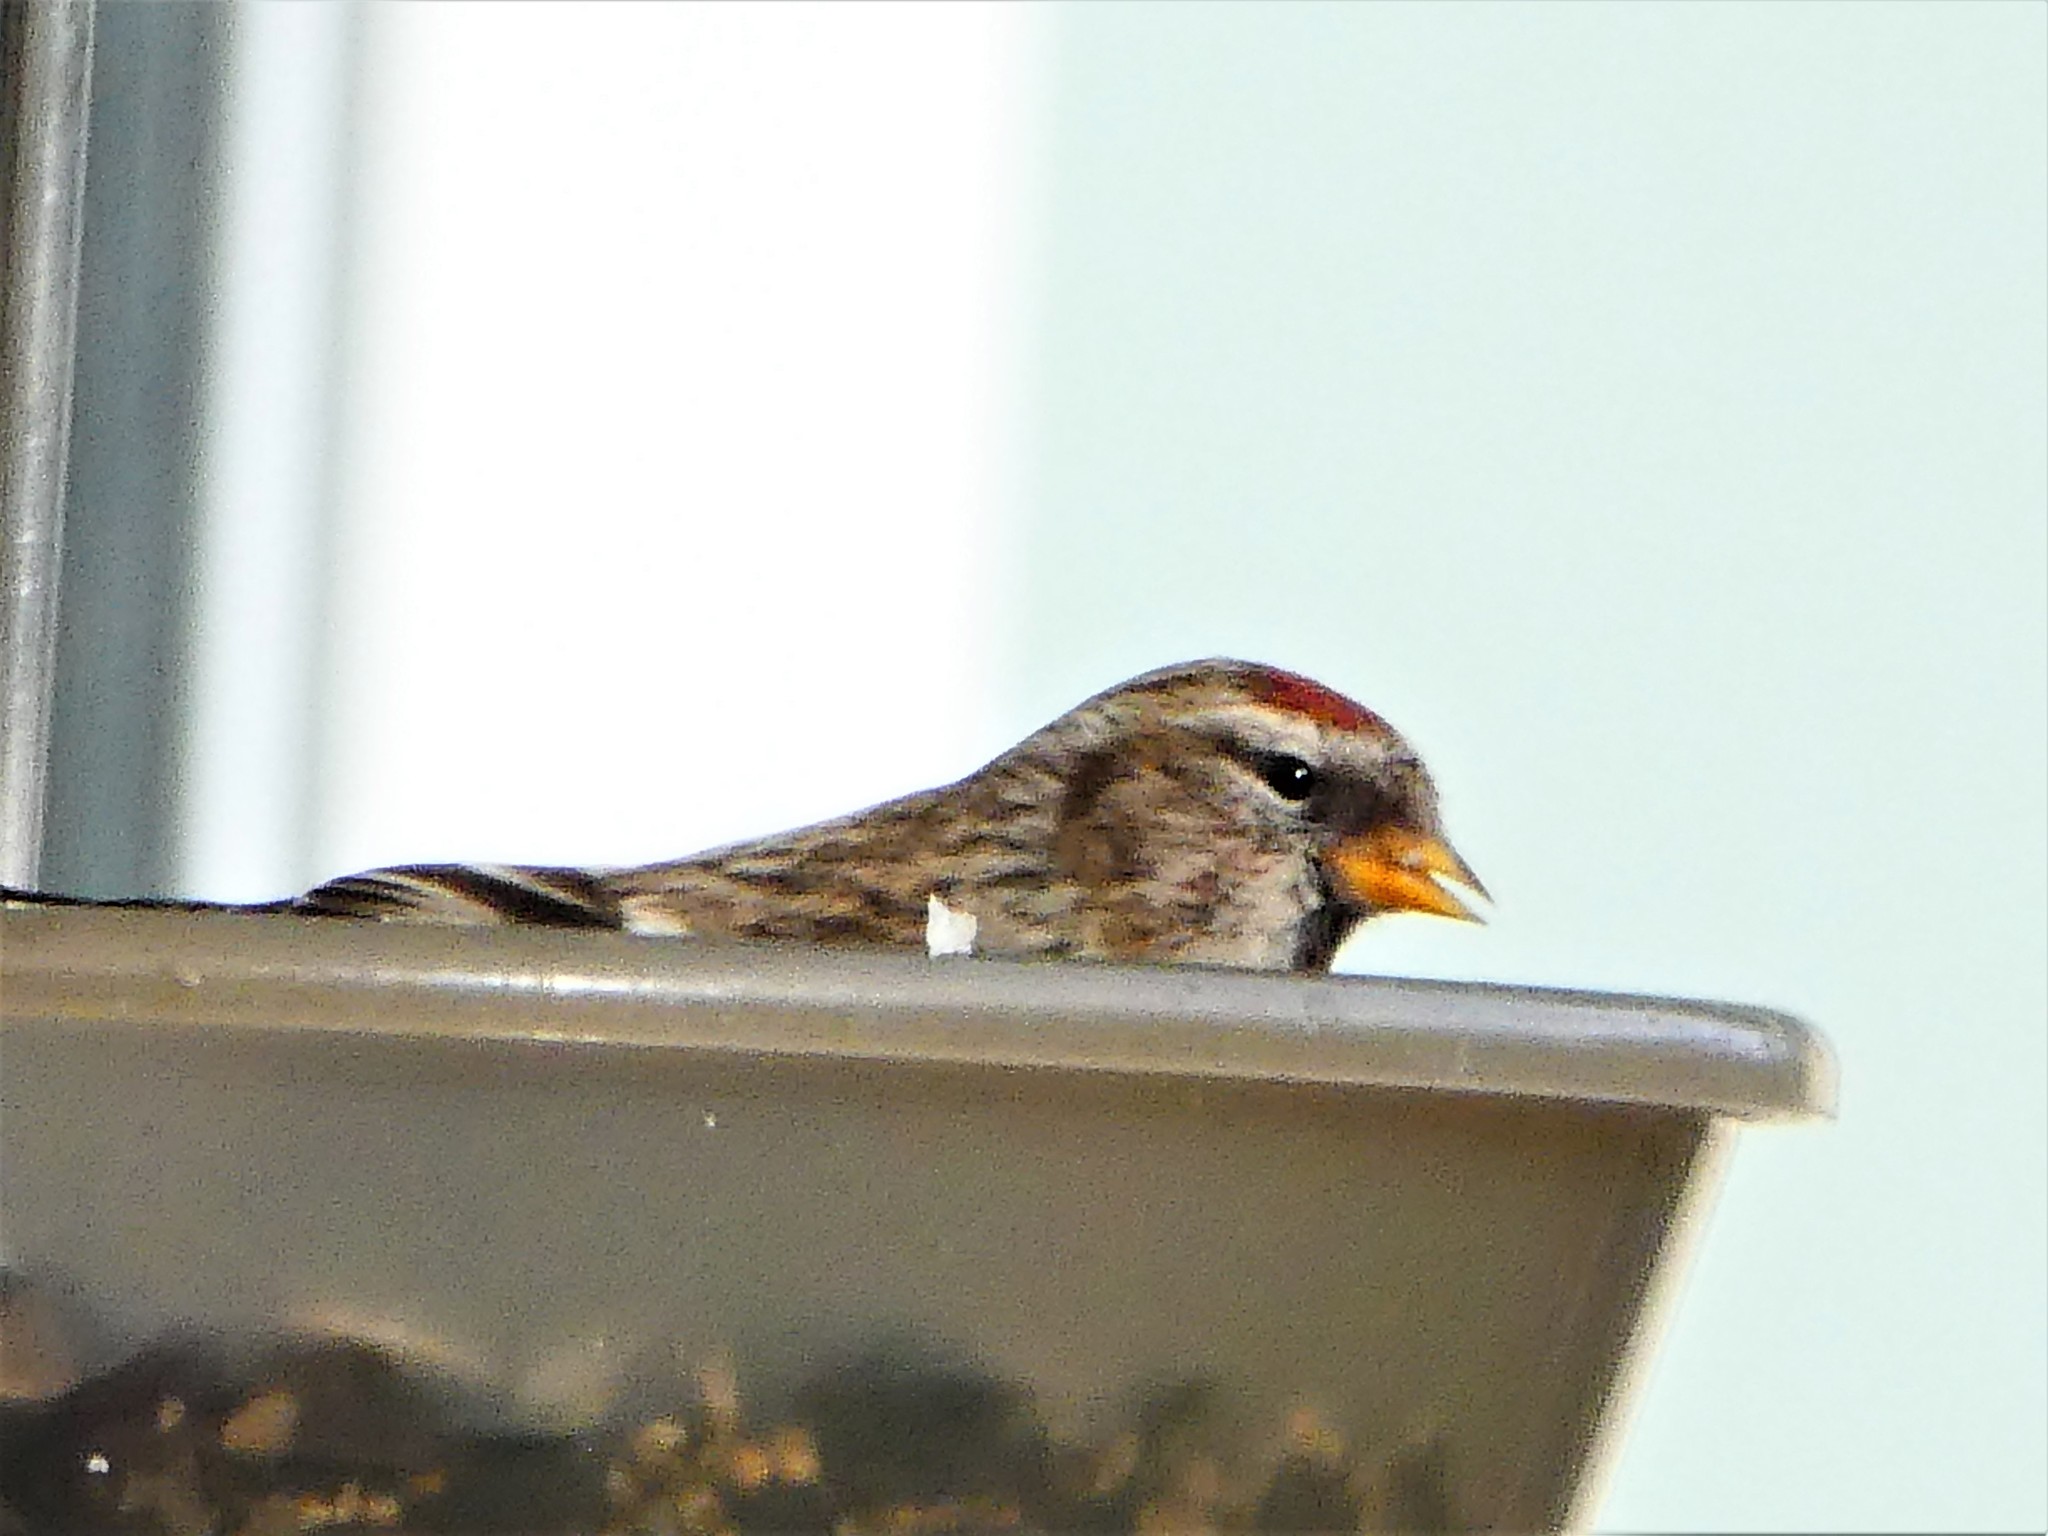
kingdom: Animalia
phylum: Chordata
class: Aves
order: Passeriformes
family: Fringillidae
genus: Acanthis
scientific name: Acanthis flammea
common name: Common redpoll
